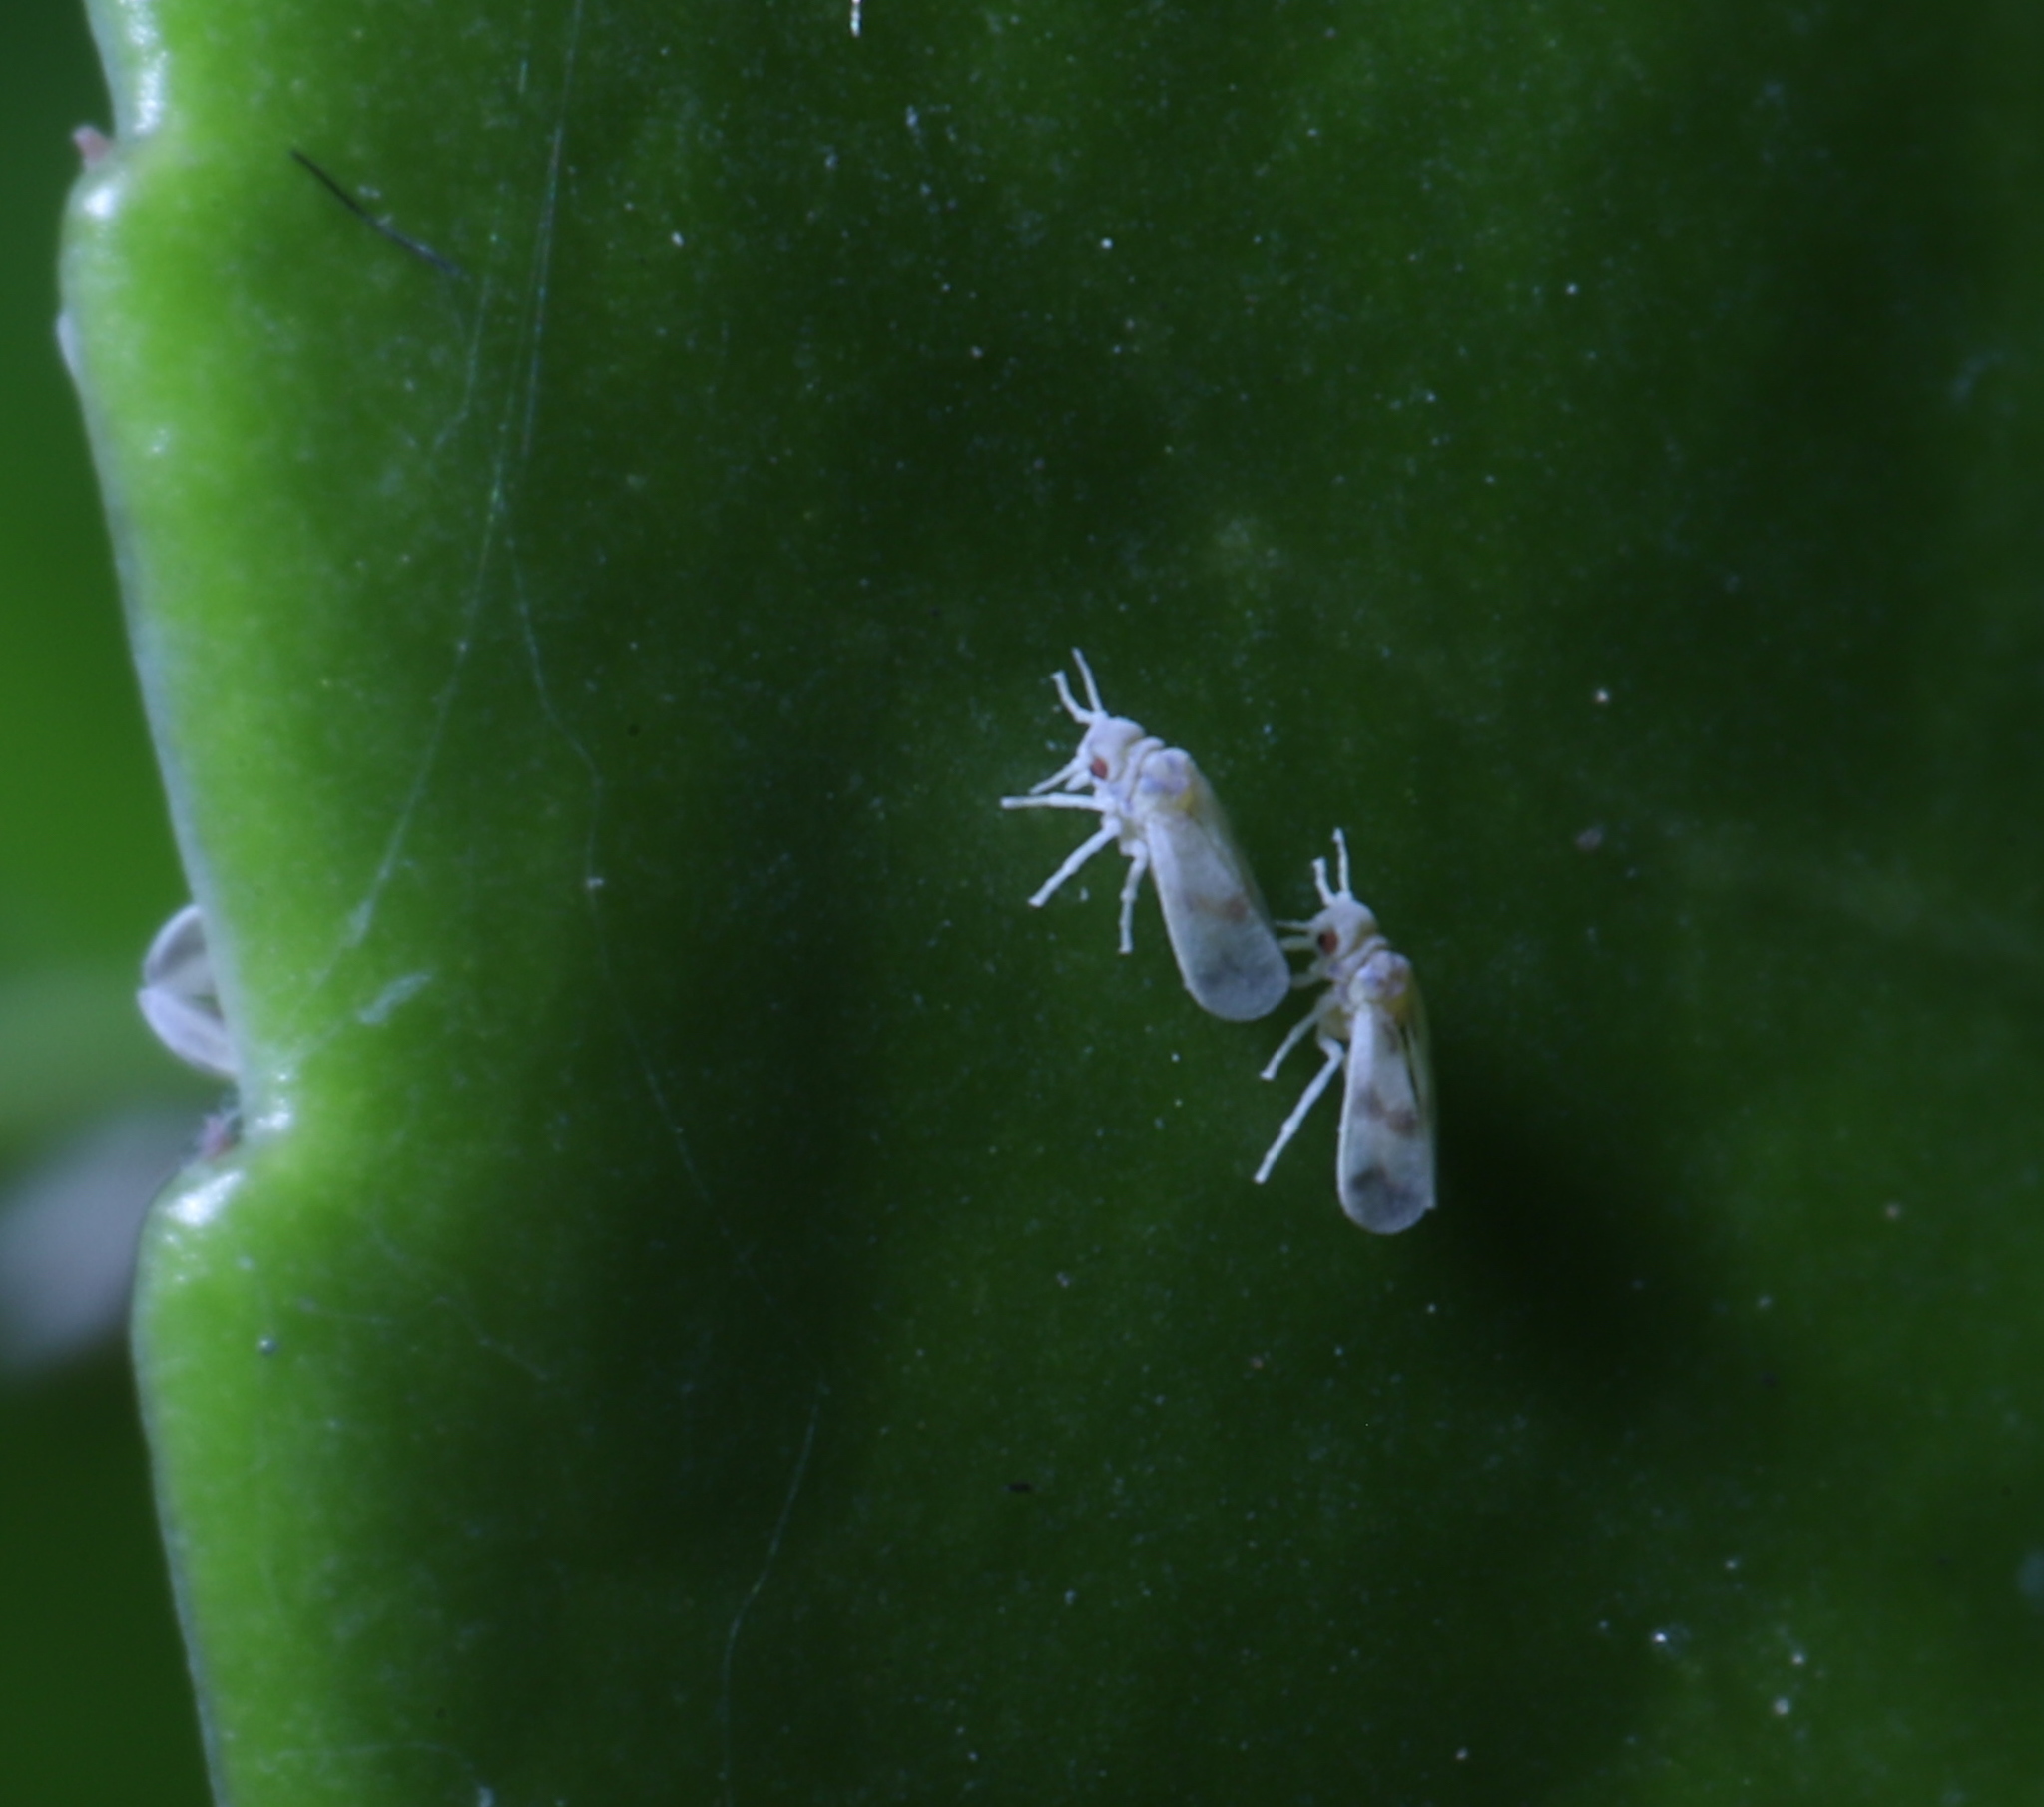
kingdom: Animalia
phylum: Arthropoda
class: Insecta
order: Hemiptera
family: Aleyrodidae
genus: Tetraleurodes
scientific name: Tetraleurodes splendens
